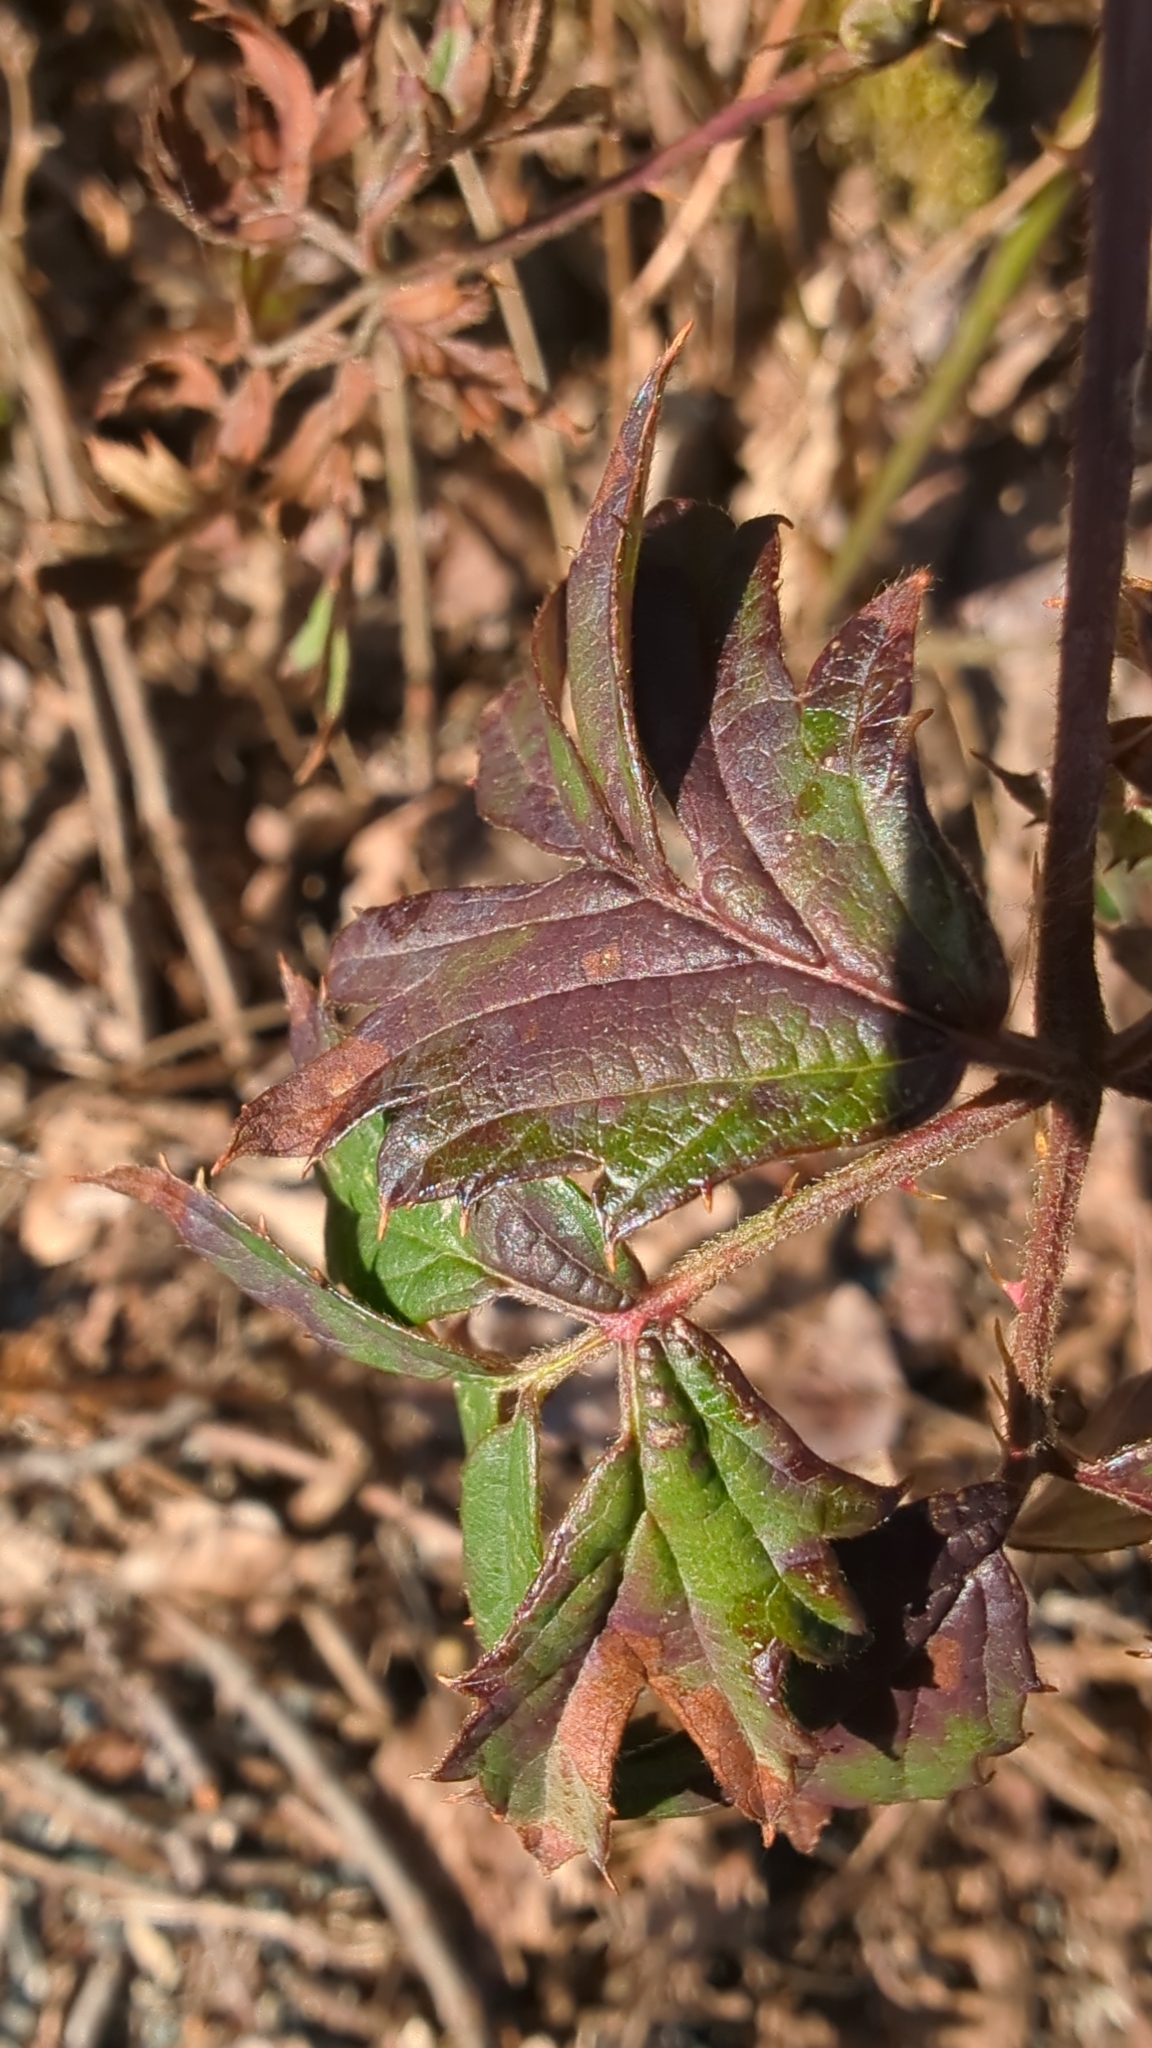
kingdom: Plantae
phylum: Tracheophyta
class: Magnoliopsida
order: Rosales
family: Rosaceae
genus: Rubus
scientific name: Rubus laciniatus
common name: Evergreen blackberry
